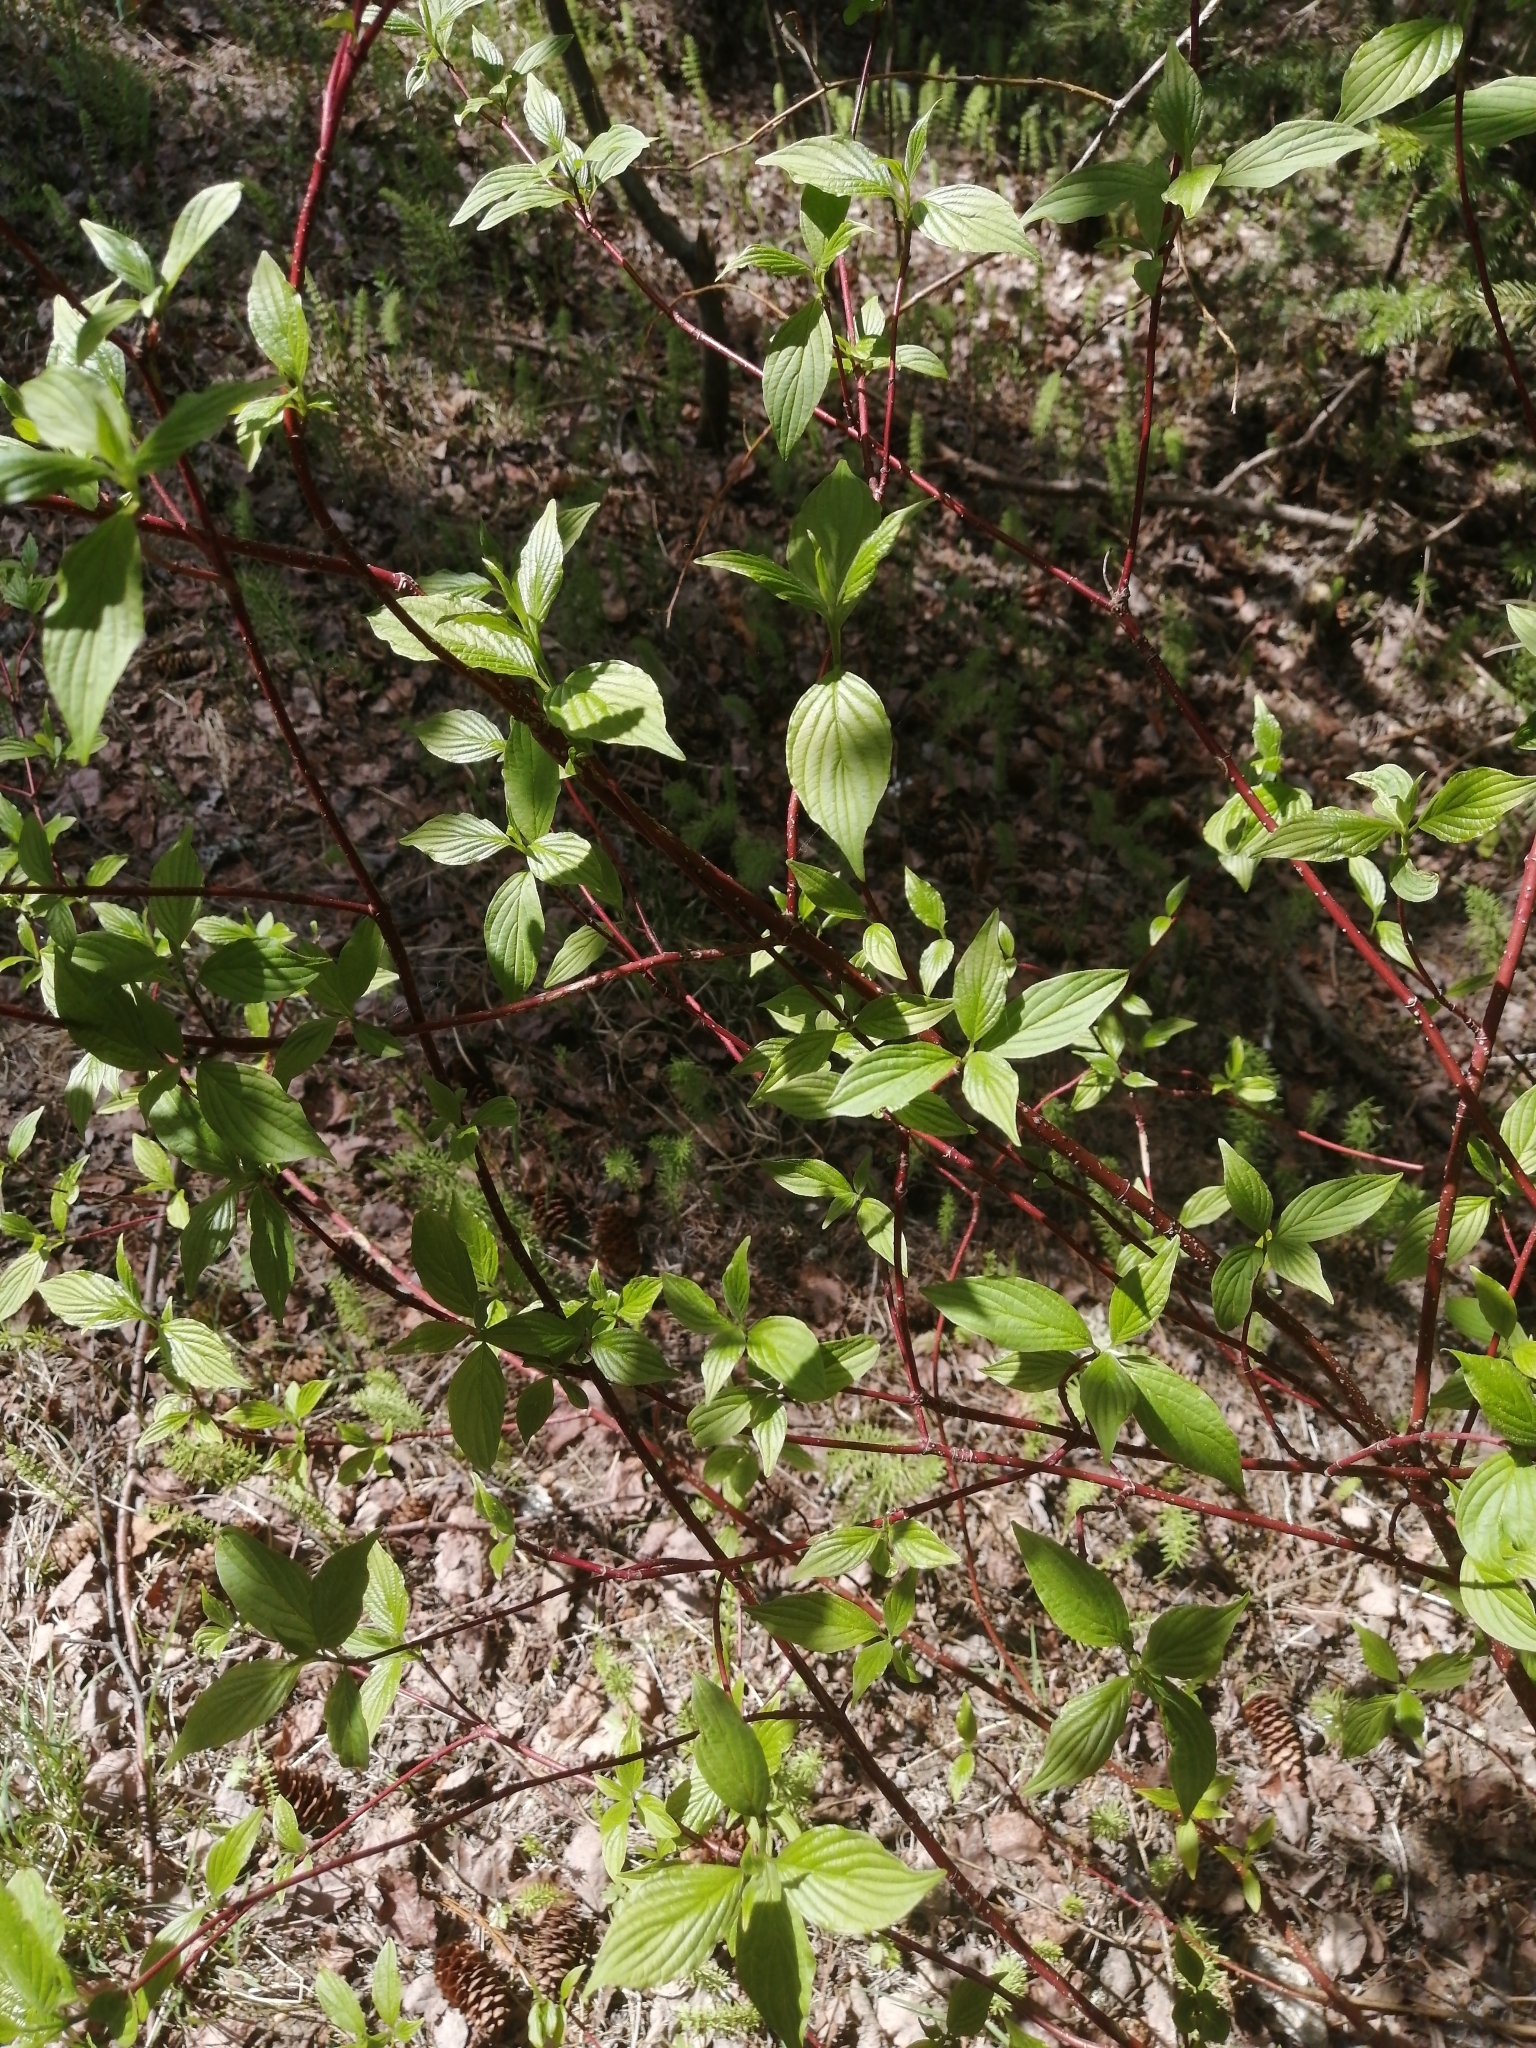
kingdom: Plantae
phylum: Tracheophyta
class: Magnoliopsida
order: Cornales
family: Cornaceae
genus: Cornus
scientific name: Cornus alba
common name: White dogwood
